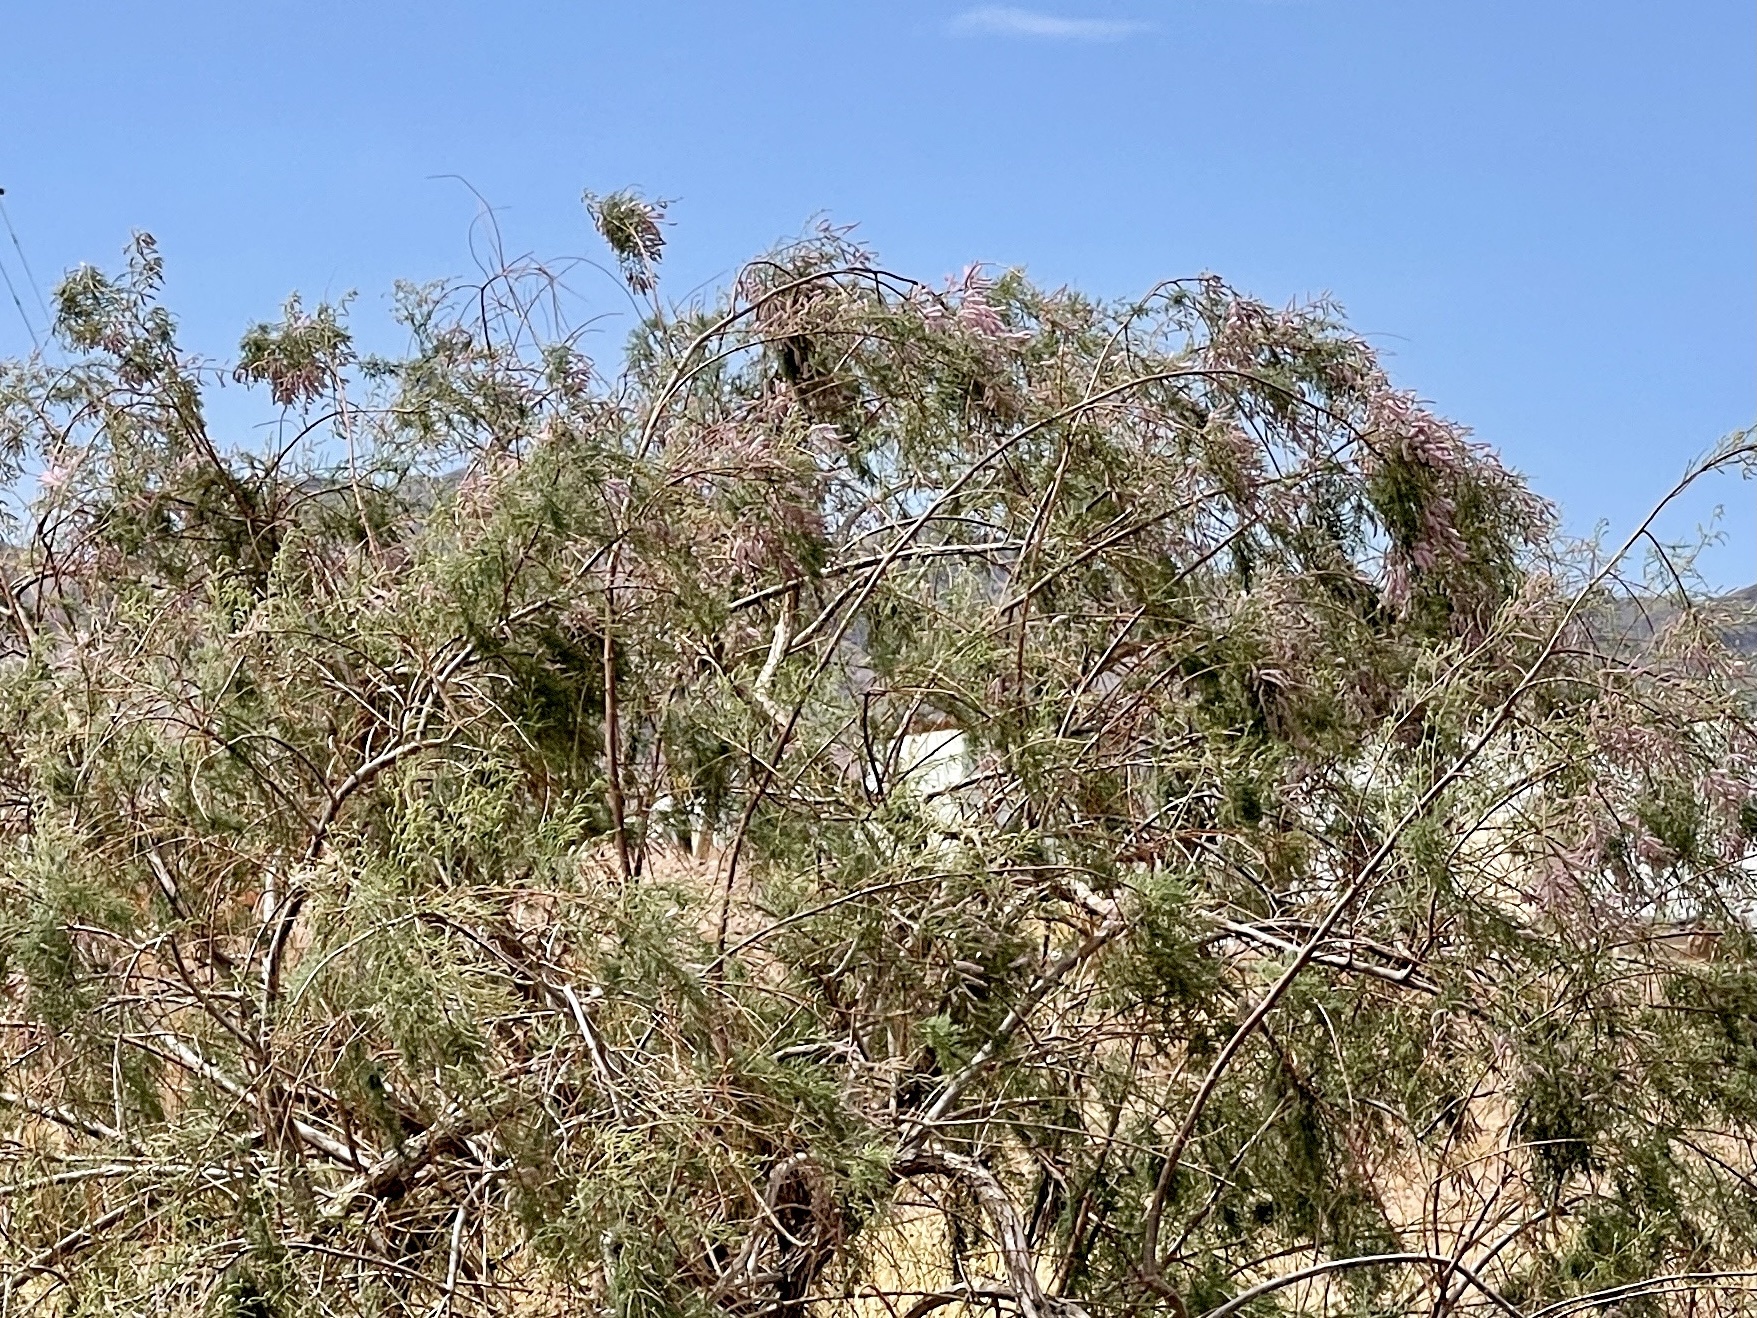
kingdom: Plantae
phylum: Tracheophyta
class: Magnoliopsida
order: Caryophyllales
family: Tamaricaceae
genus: Tamarix
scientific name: Tamarix ramosissima
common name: Pink tamarisk
